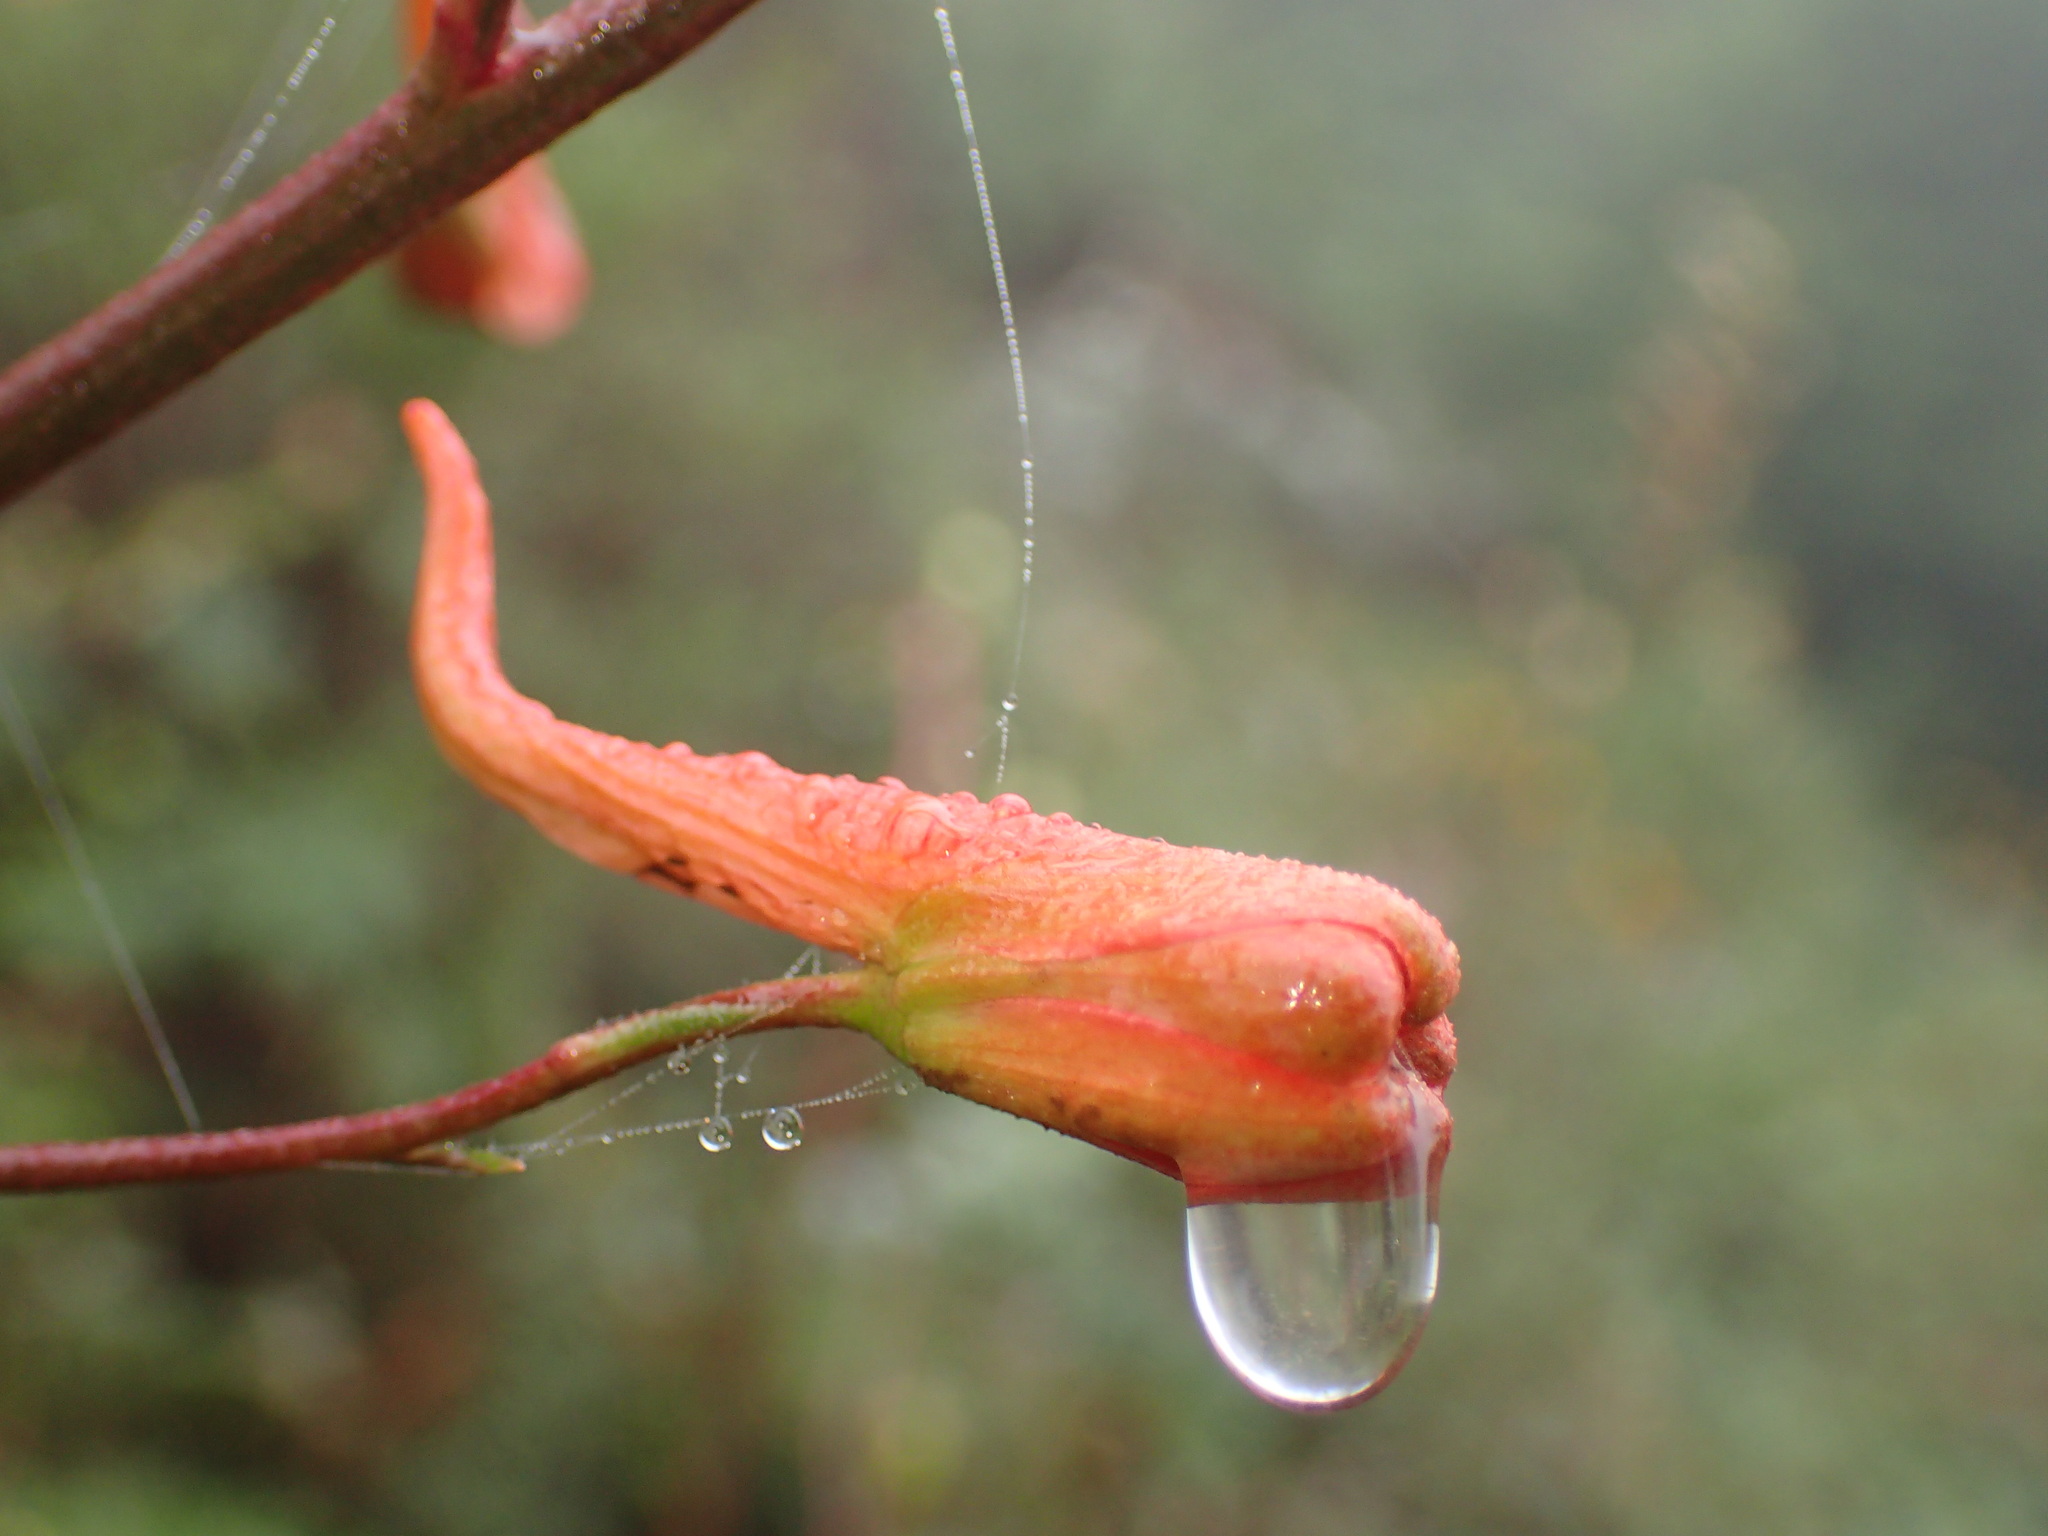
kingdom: Plantae
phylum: Tracheophyta
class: Magnoliopsida
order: Ranunculales
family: Ranunculaceae
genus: Delphinium
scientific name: Delphinium cardinale
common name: Scarlet larkspur
